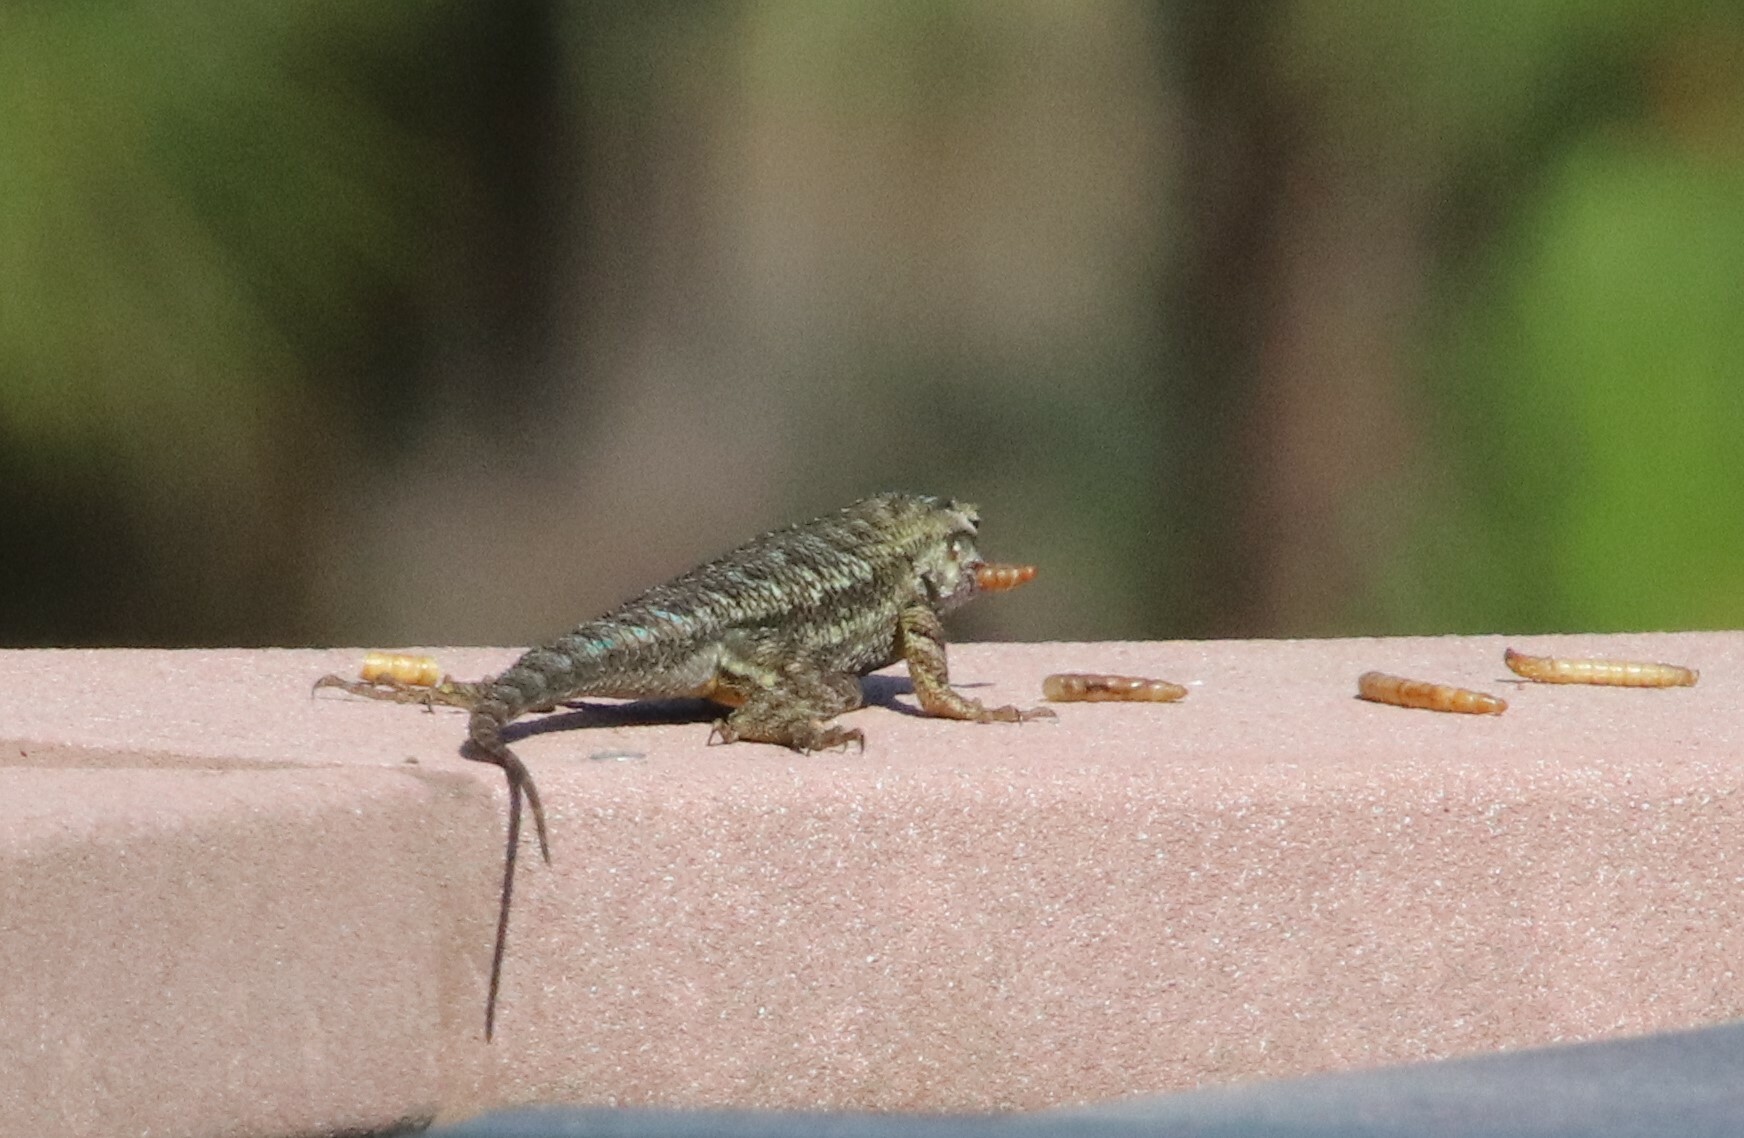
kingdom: Animalia
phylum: Chordata
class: Squamata
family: Phrynosomatidae
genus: Sceloporus
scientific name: Sceloporus occidentalis
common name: Western fence lizard
